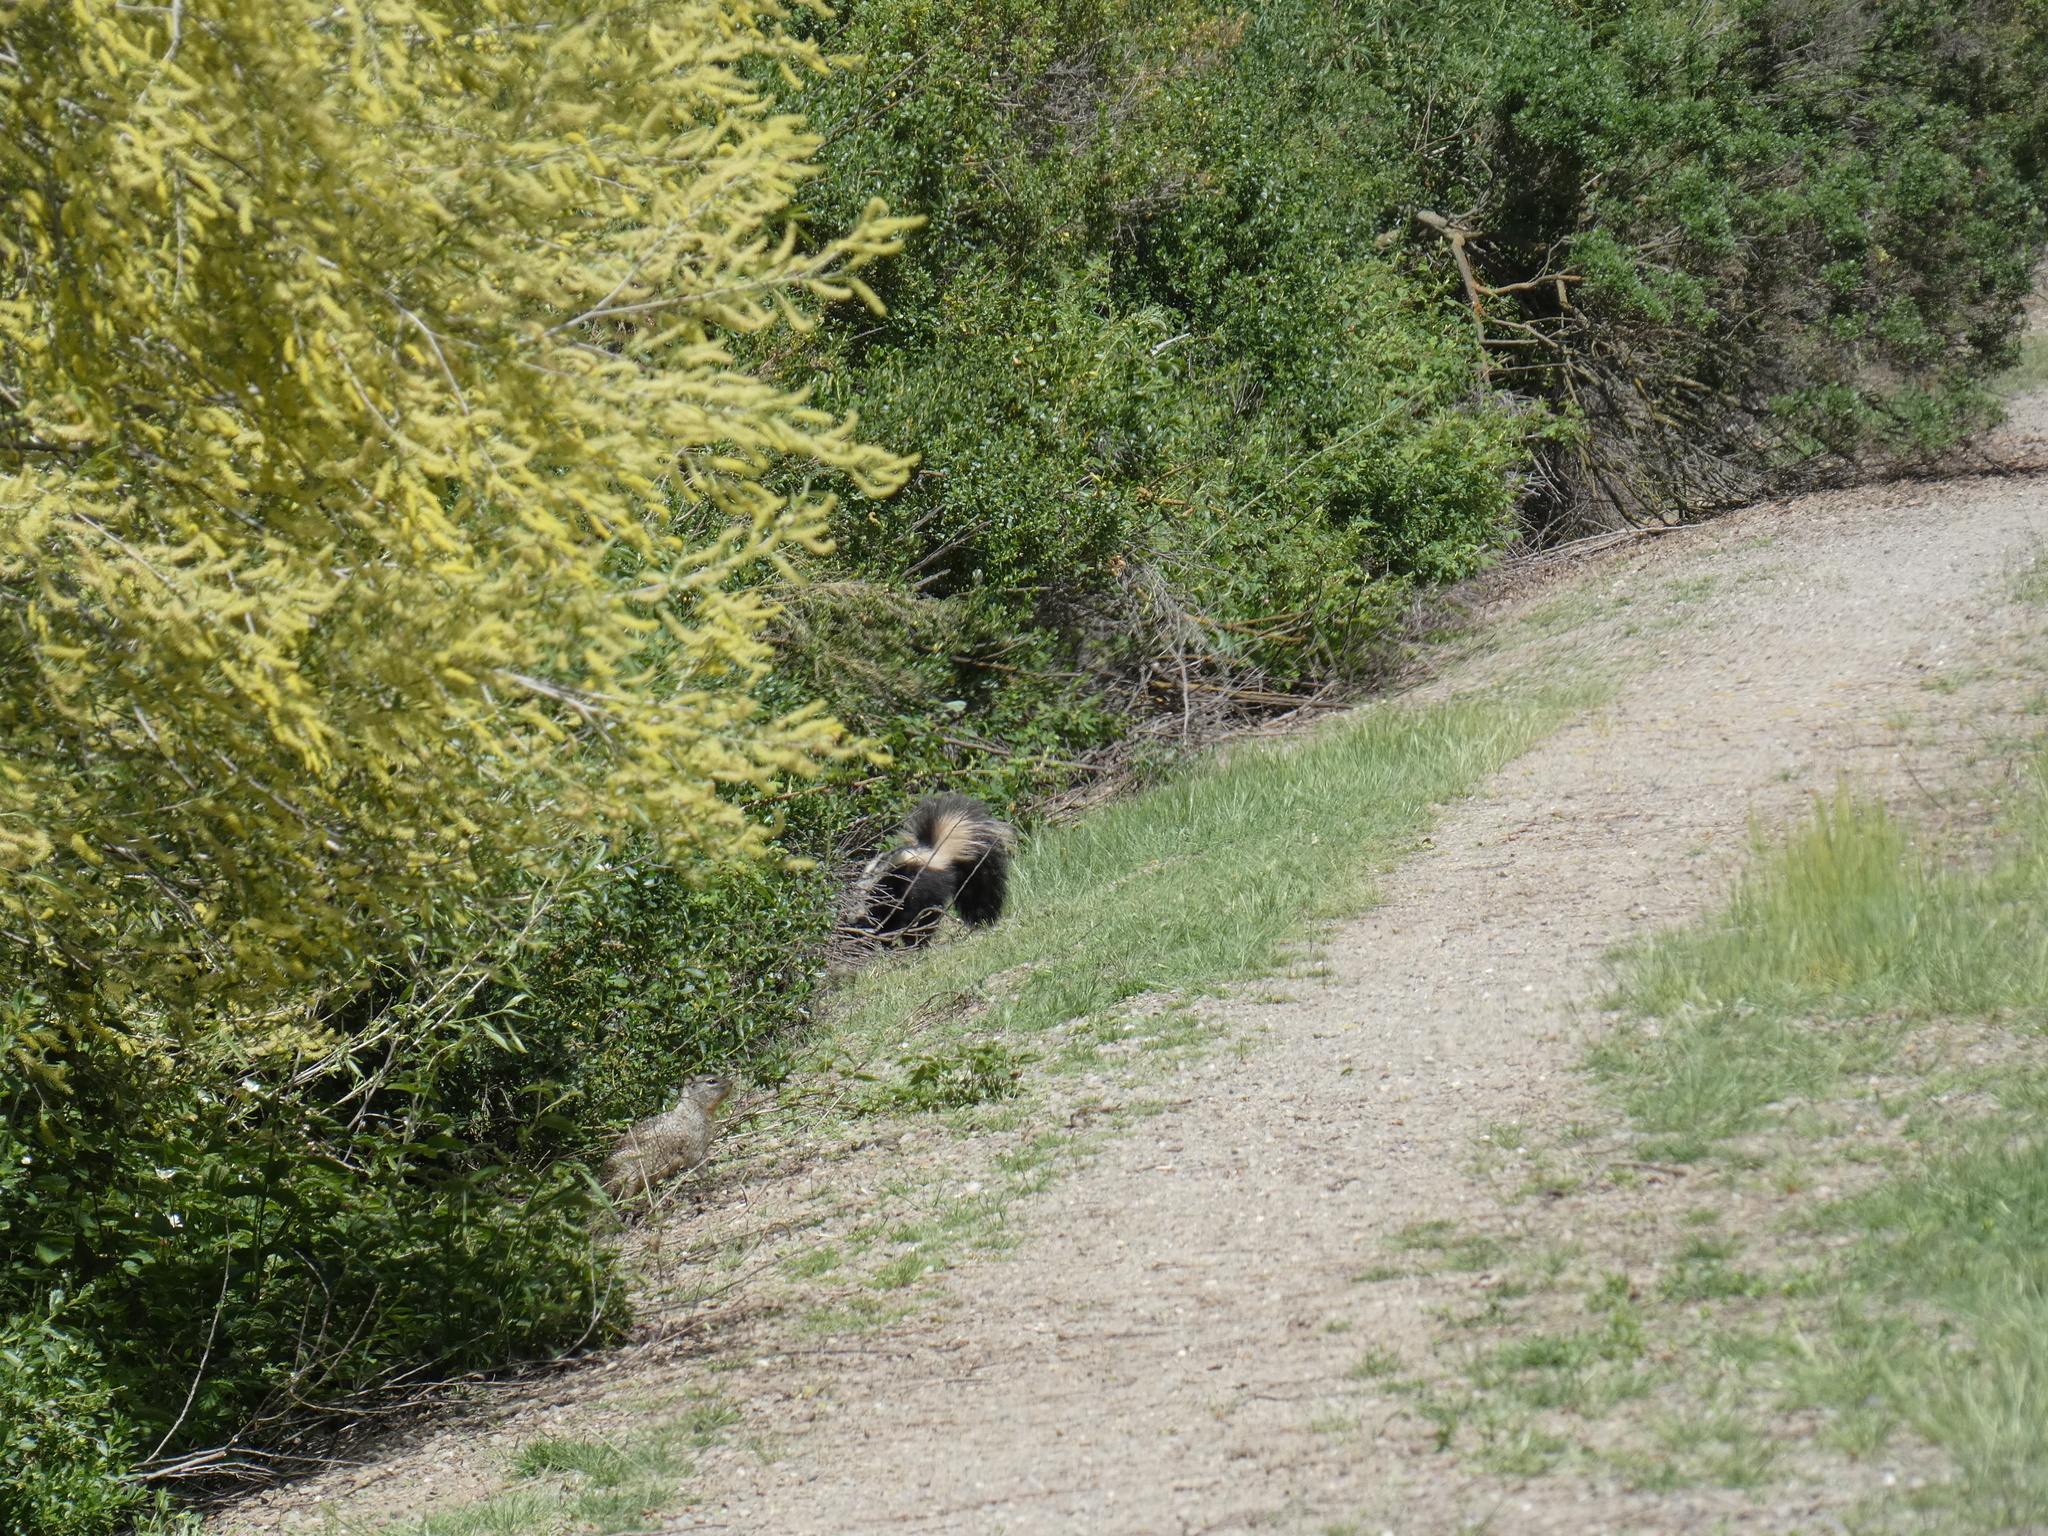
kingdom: Animalia
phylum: Chordata
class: Mammalia
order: Carnivora
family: Mephitidae
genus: Mephitis
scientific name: Mephitis mephitis
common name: Striped skunk
